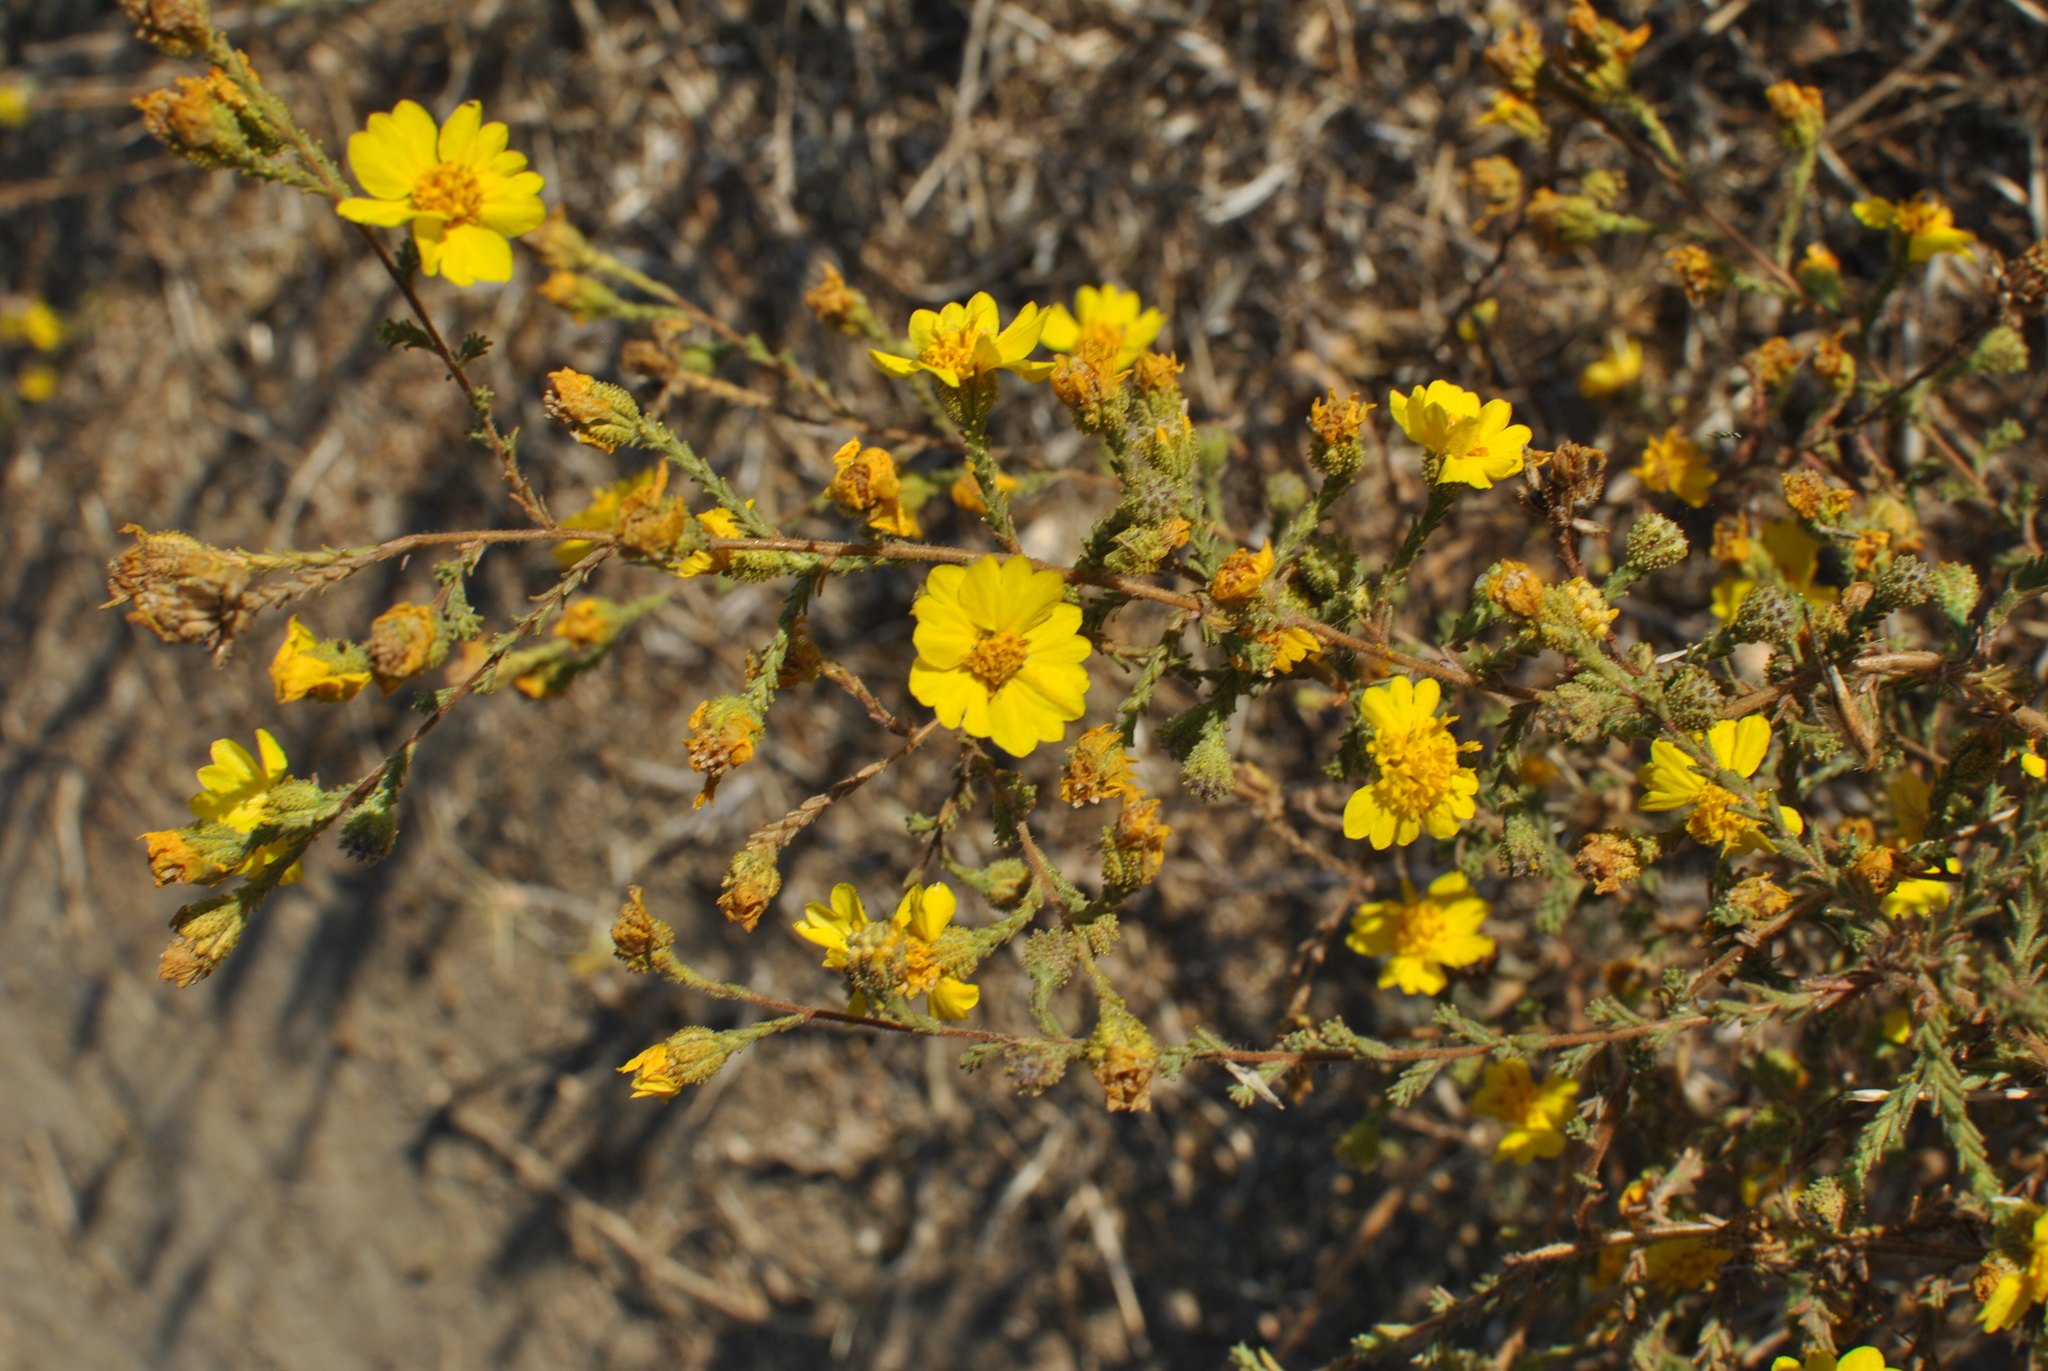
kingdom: Plantae
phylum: Tracheophyta
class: Magnoliopsida
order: Asterales
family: Asteraceae
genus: Holocarpha
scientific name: Holocarpha heermannii
